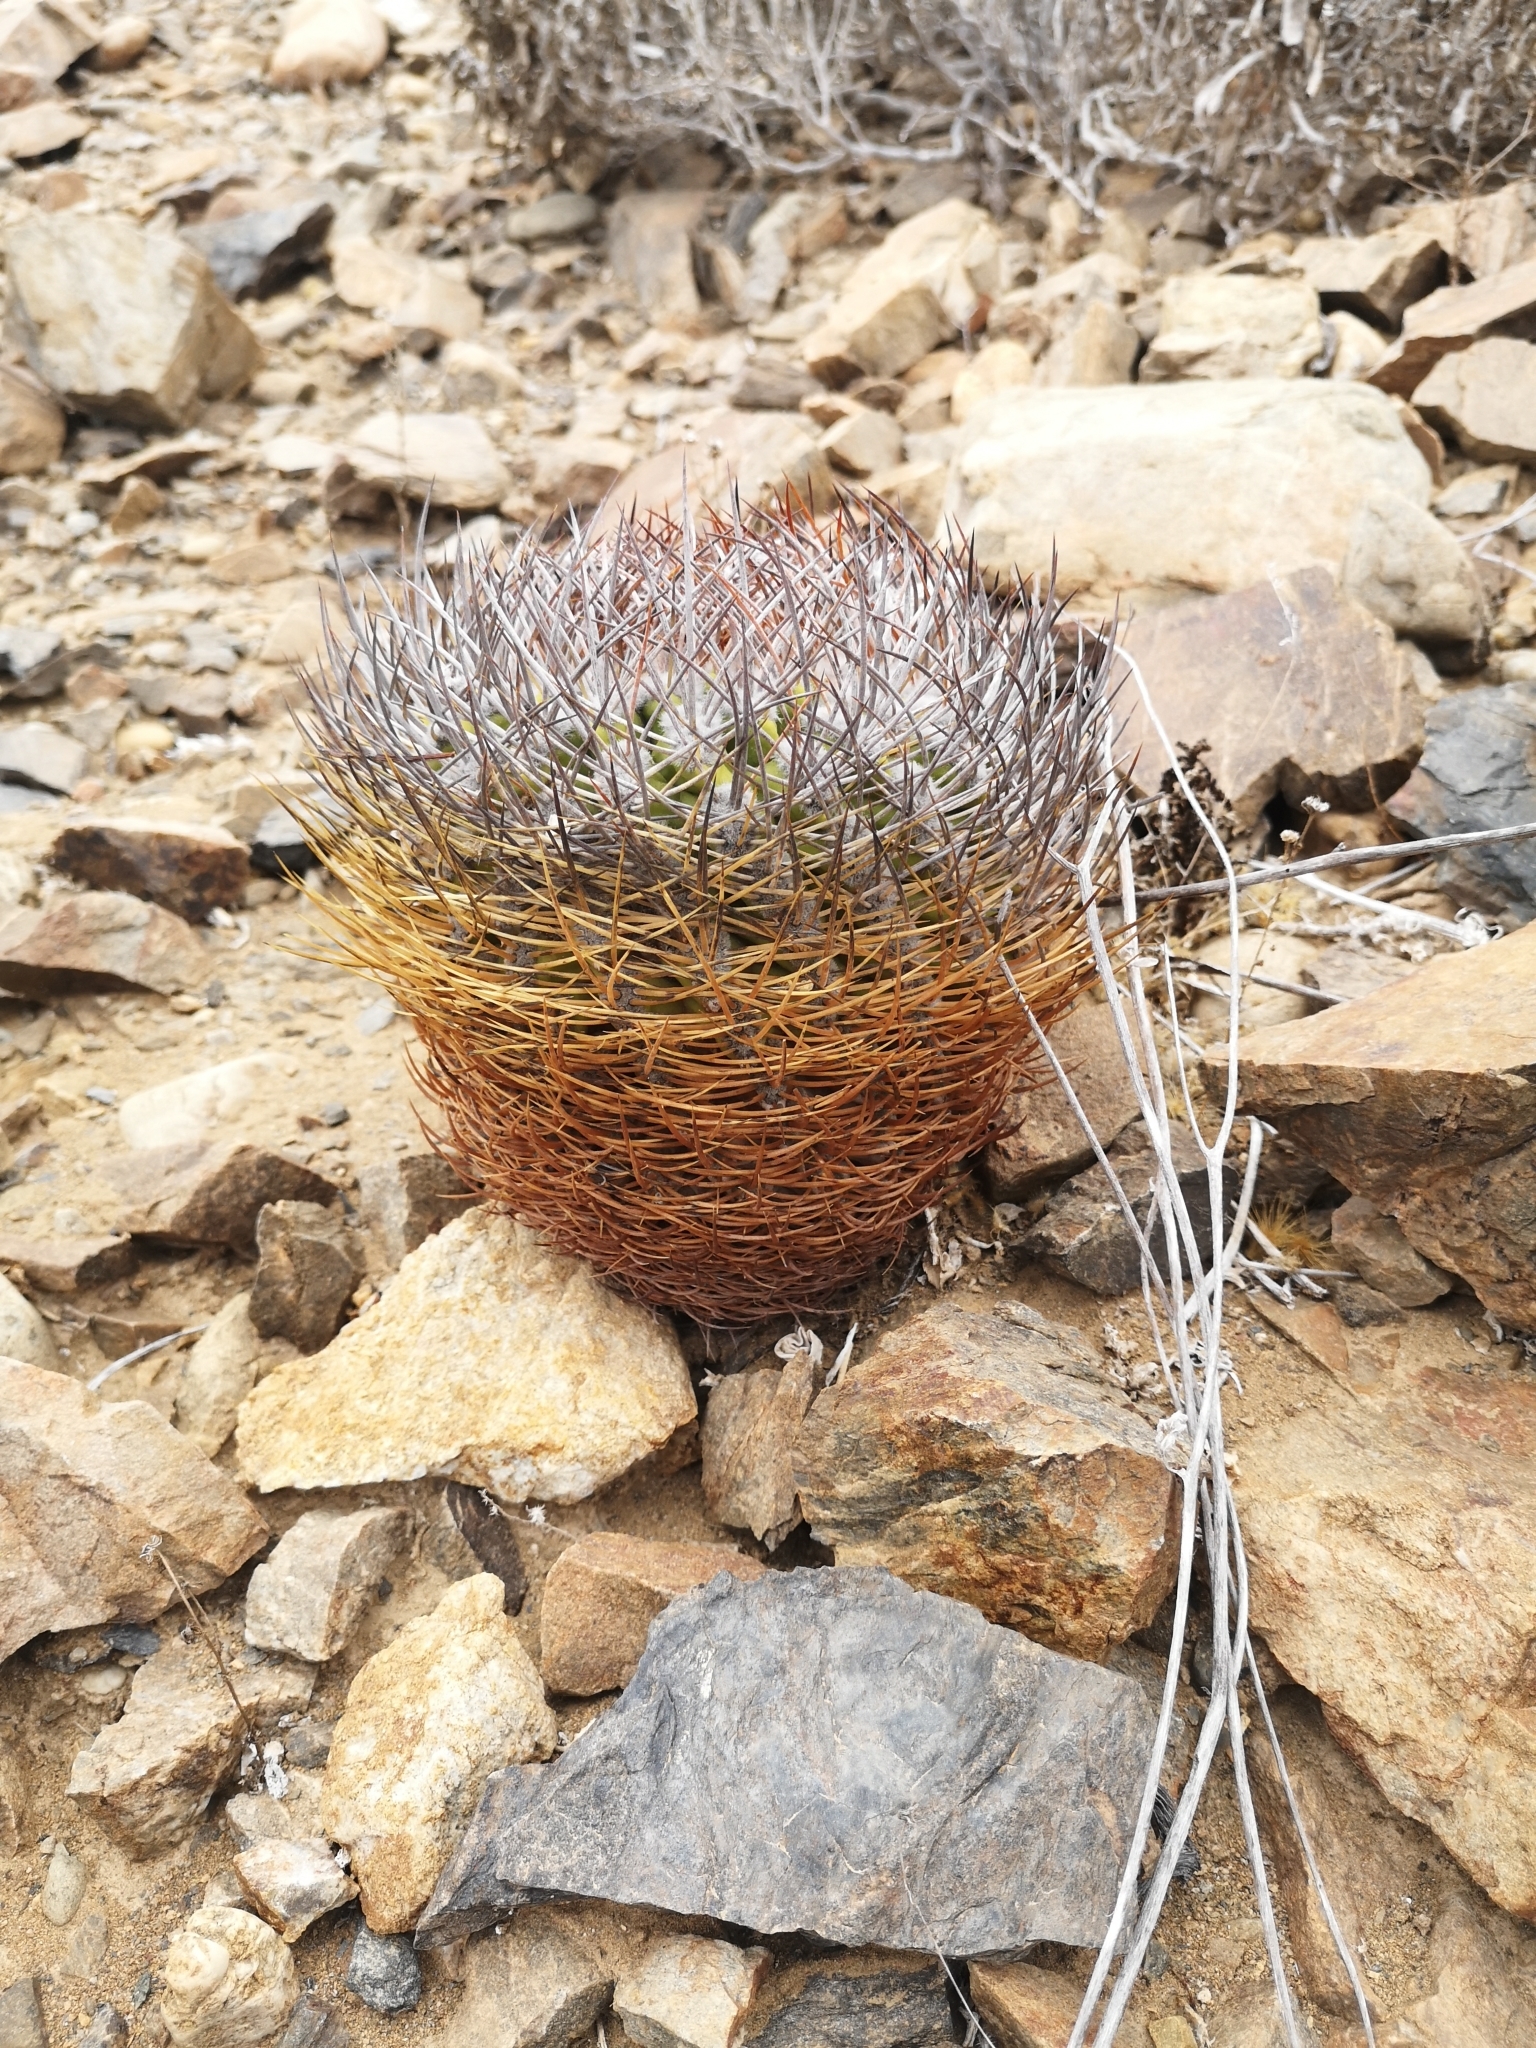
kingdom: Plantae
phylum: Tracheophyta
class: Magnoliopsida
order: Caryophyllales
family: Cactaceae
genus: Eriosyce
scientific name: Eriosyce rodentiophila
